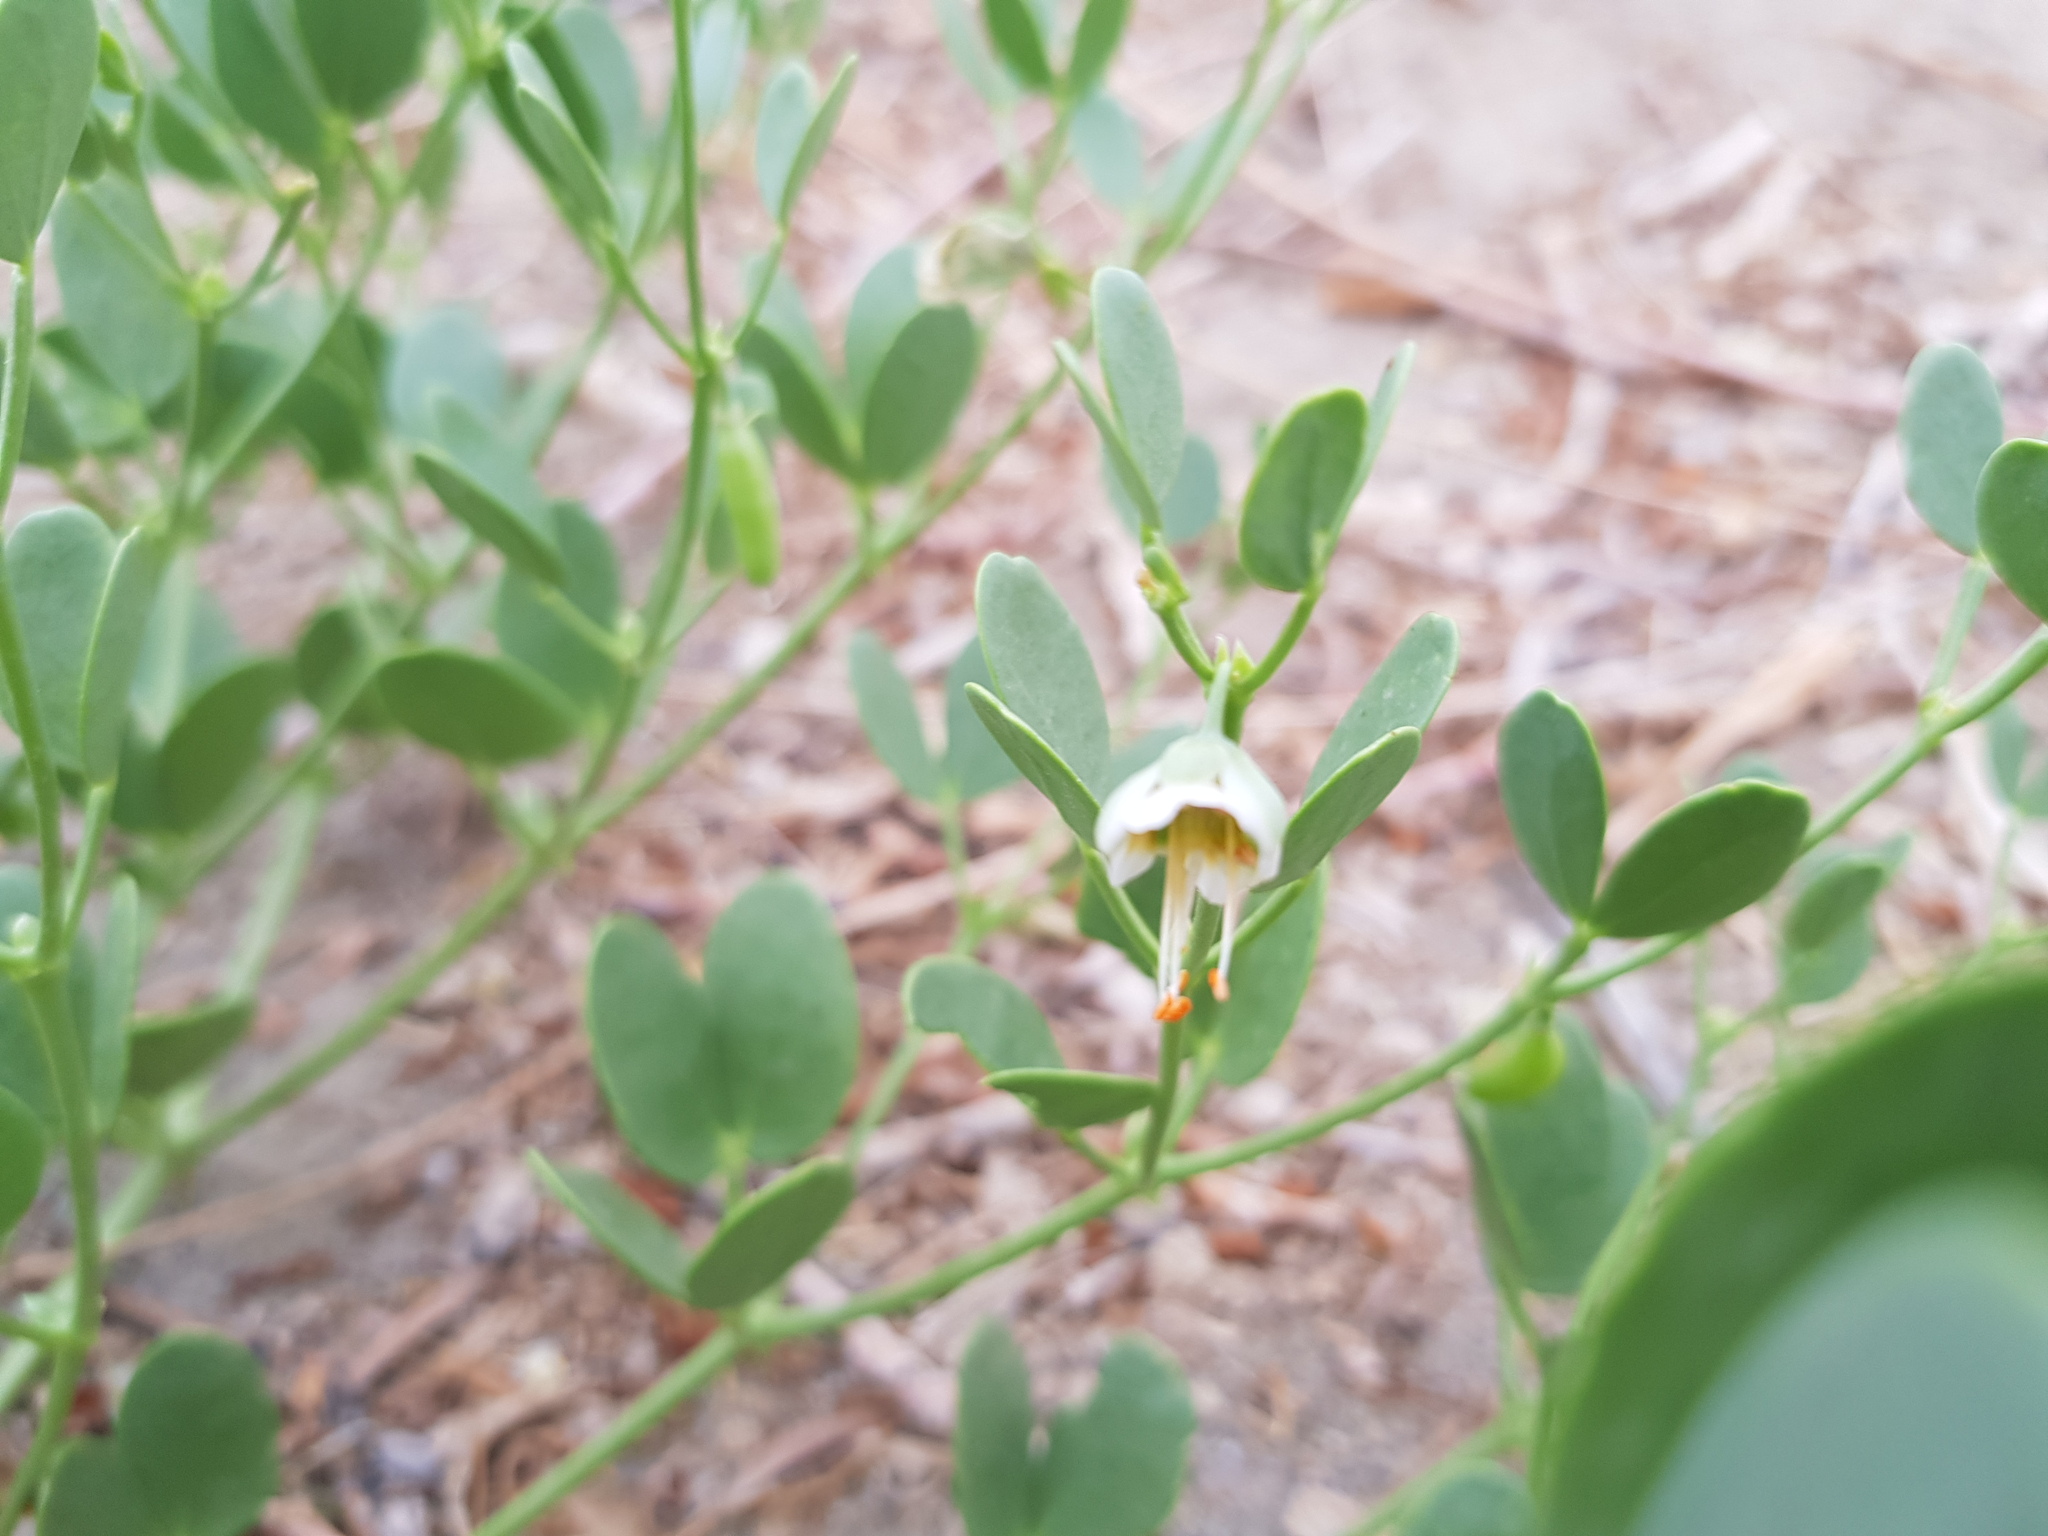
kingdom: Plantae
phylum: Tracheophyta
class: Magnoliopsida
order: Zygophyllales
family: Zygophyllaceae
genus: Zygophyllum
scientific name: Zygophyllum brachypterum
